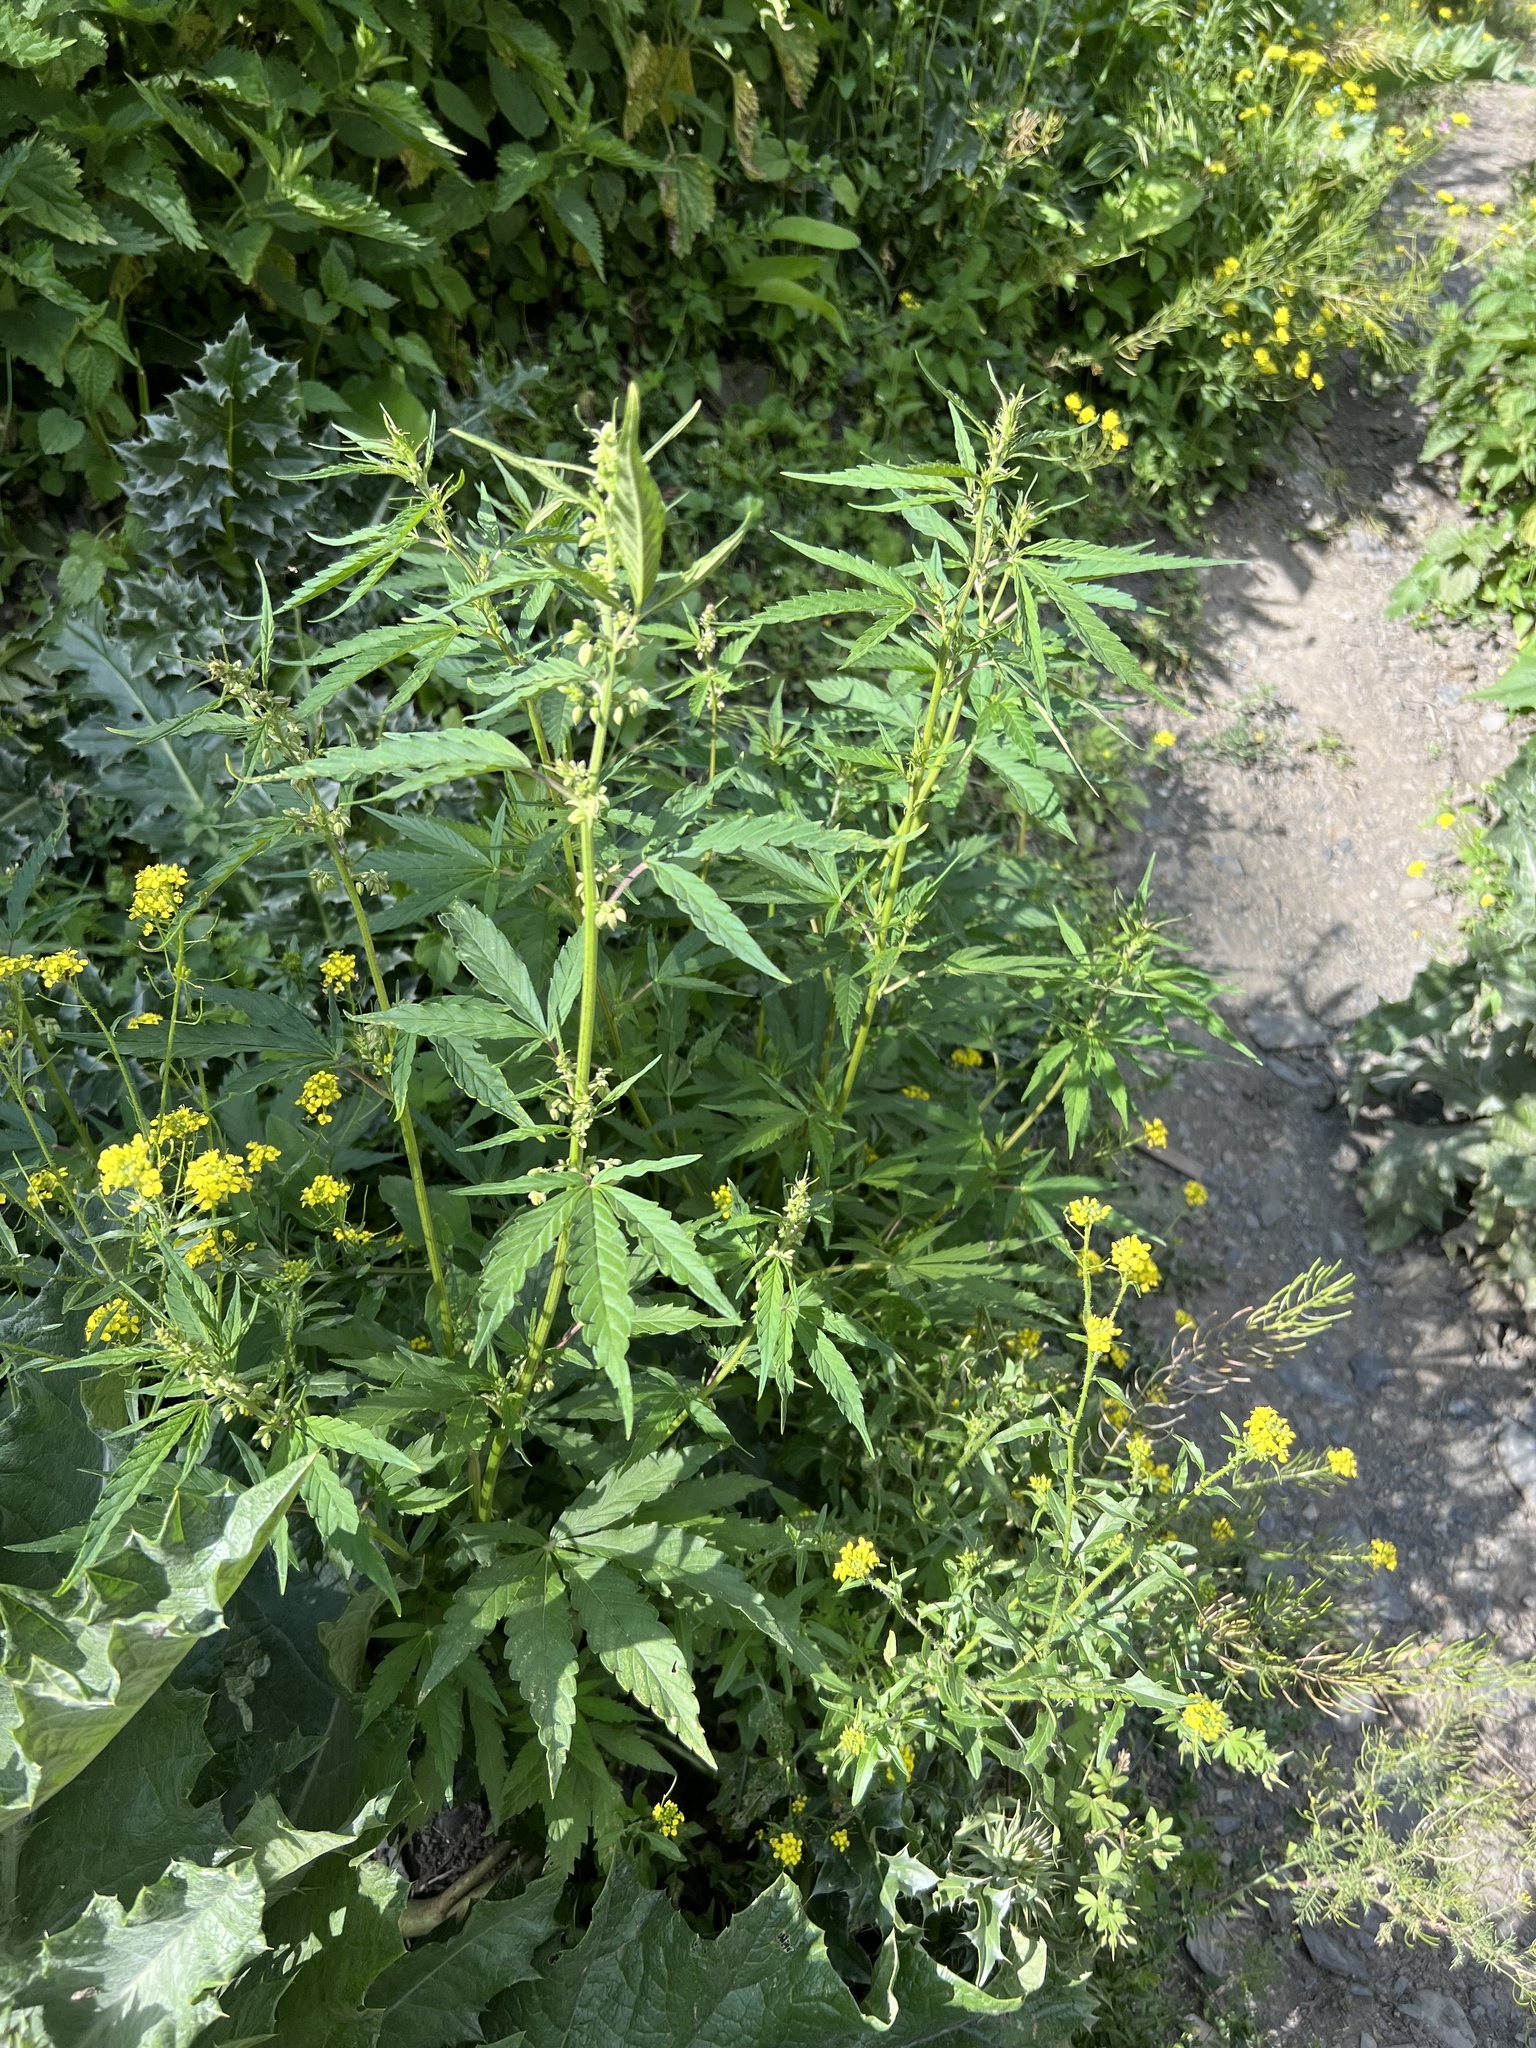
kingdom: Plantae
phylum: Tracheophyta
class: Magnoliopsida
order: Rosales
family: Cannabaceae
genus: Cannabis
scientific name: Cannabis sativa
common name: Hemp
